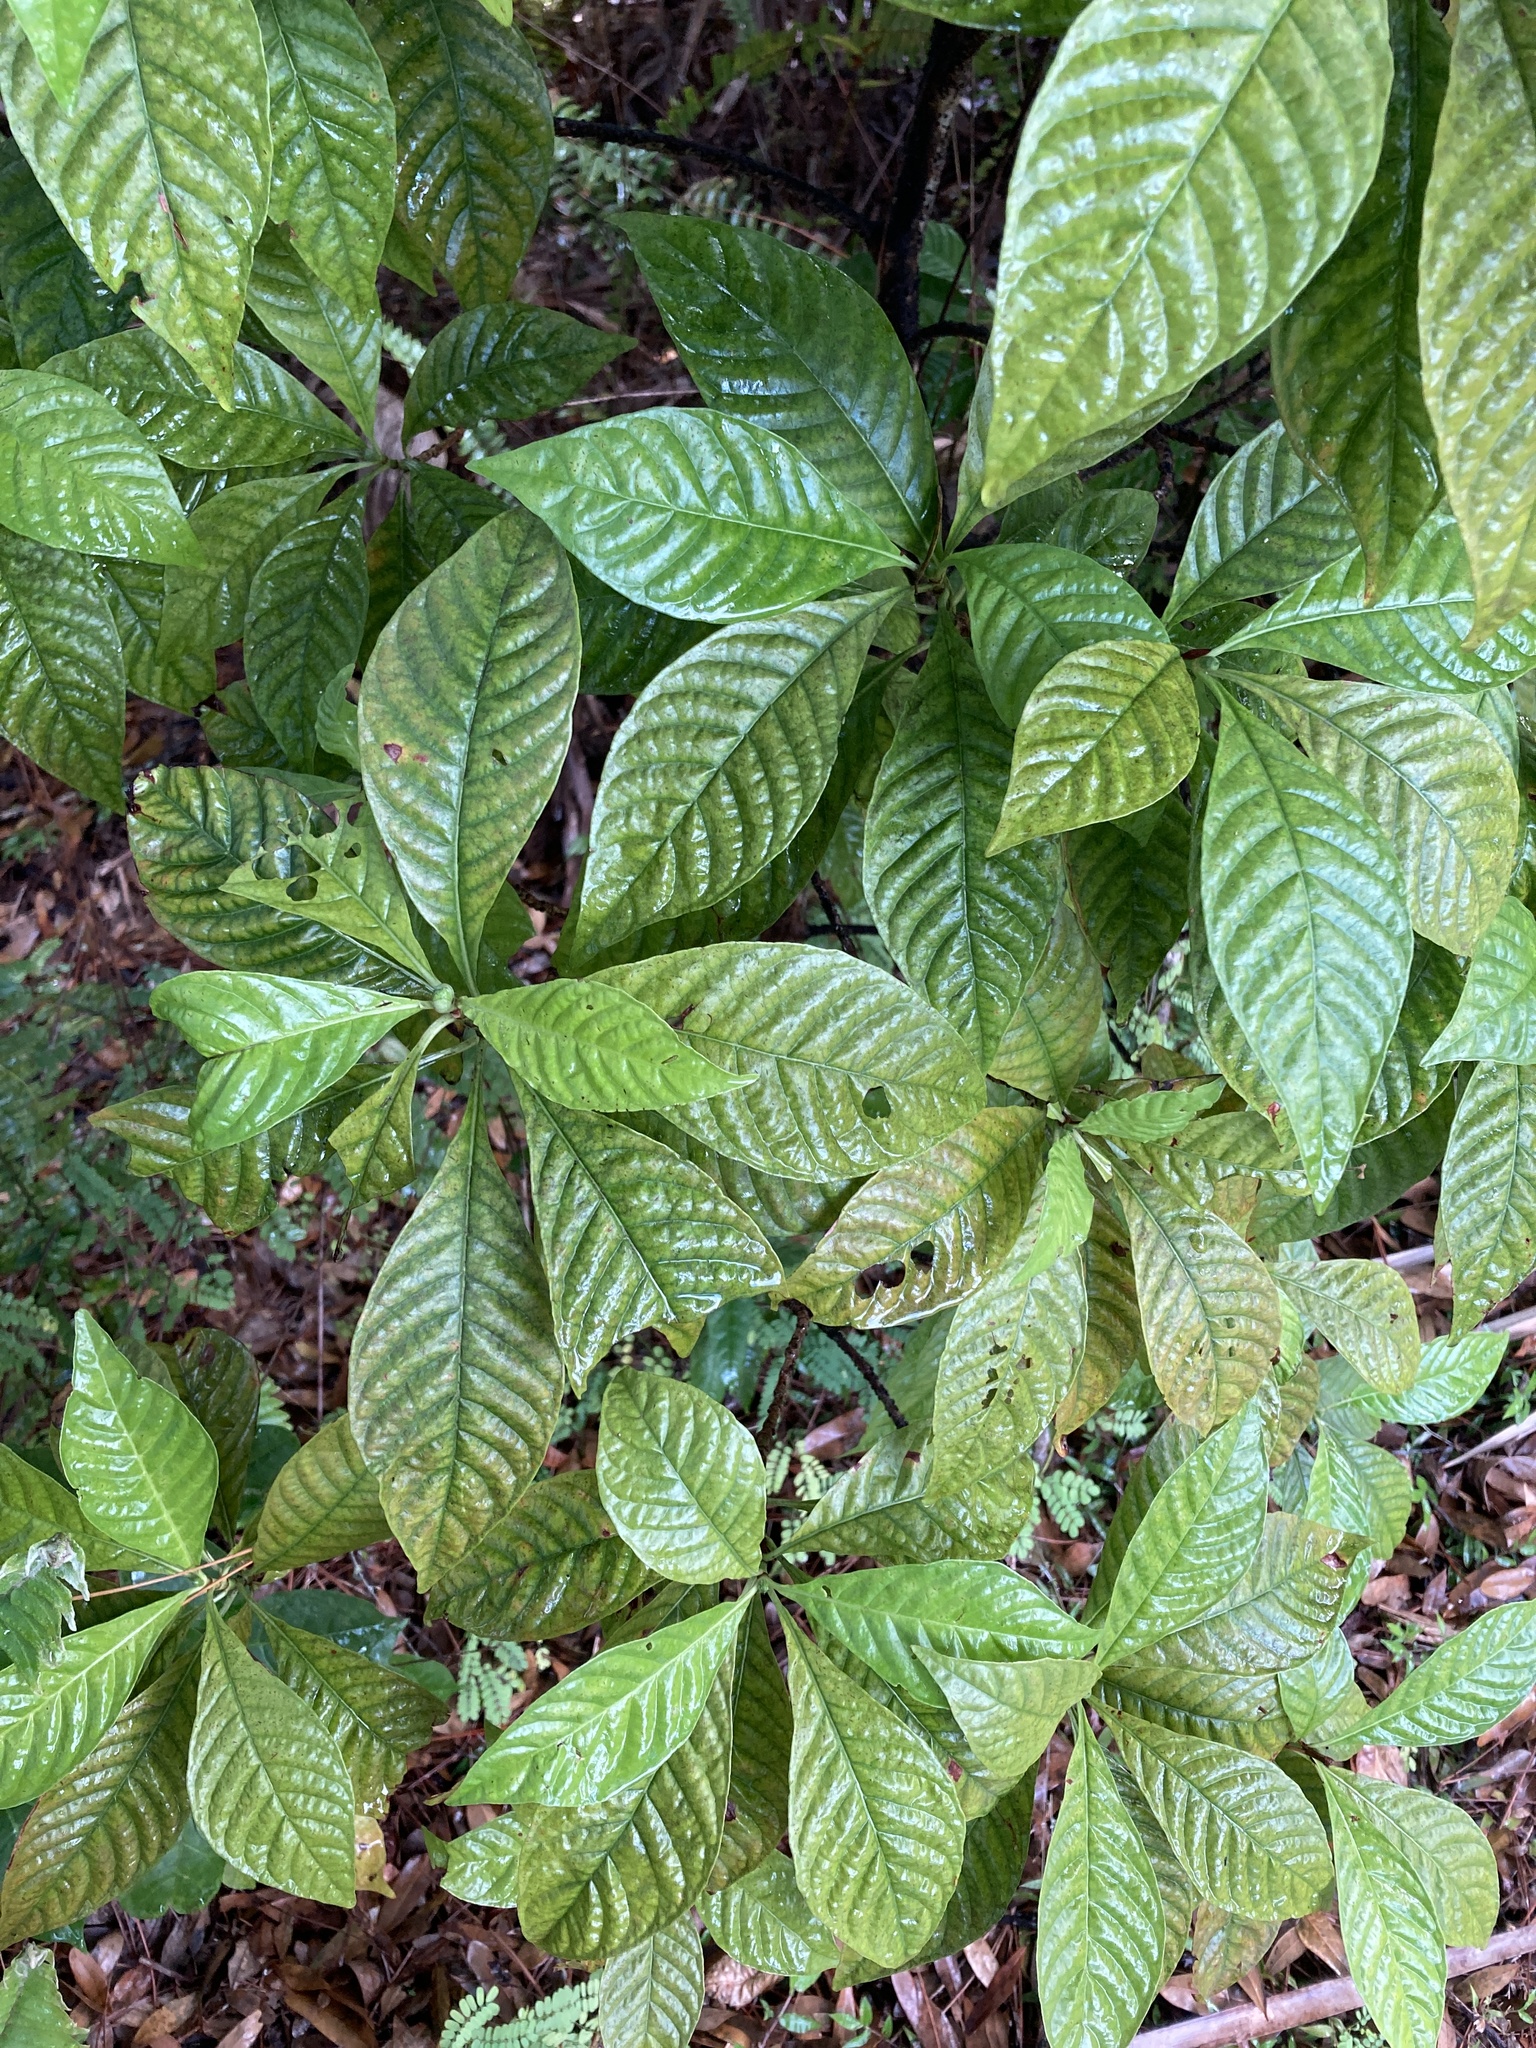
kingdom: Plantae
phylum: Tracheophyta
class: Magnoliopsida
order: Gentianales
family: Rubiaceae
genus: Psychotria
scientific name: Psychotria nervosa
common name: Bastard cankerberry
